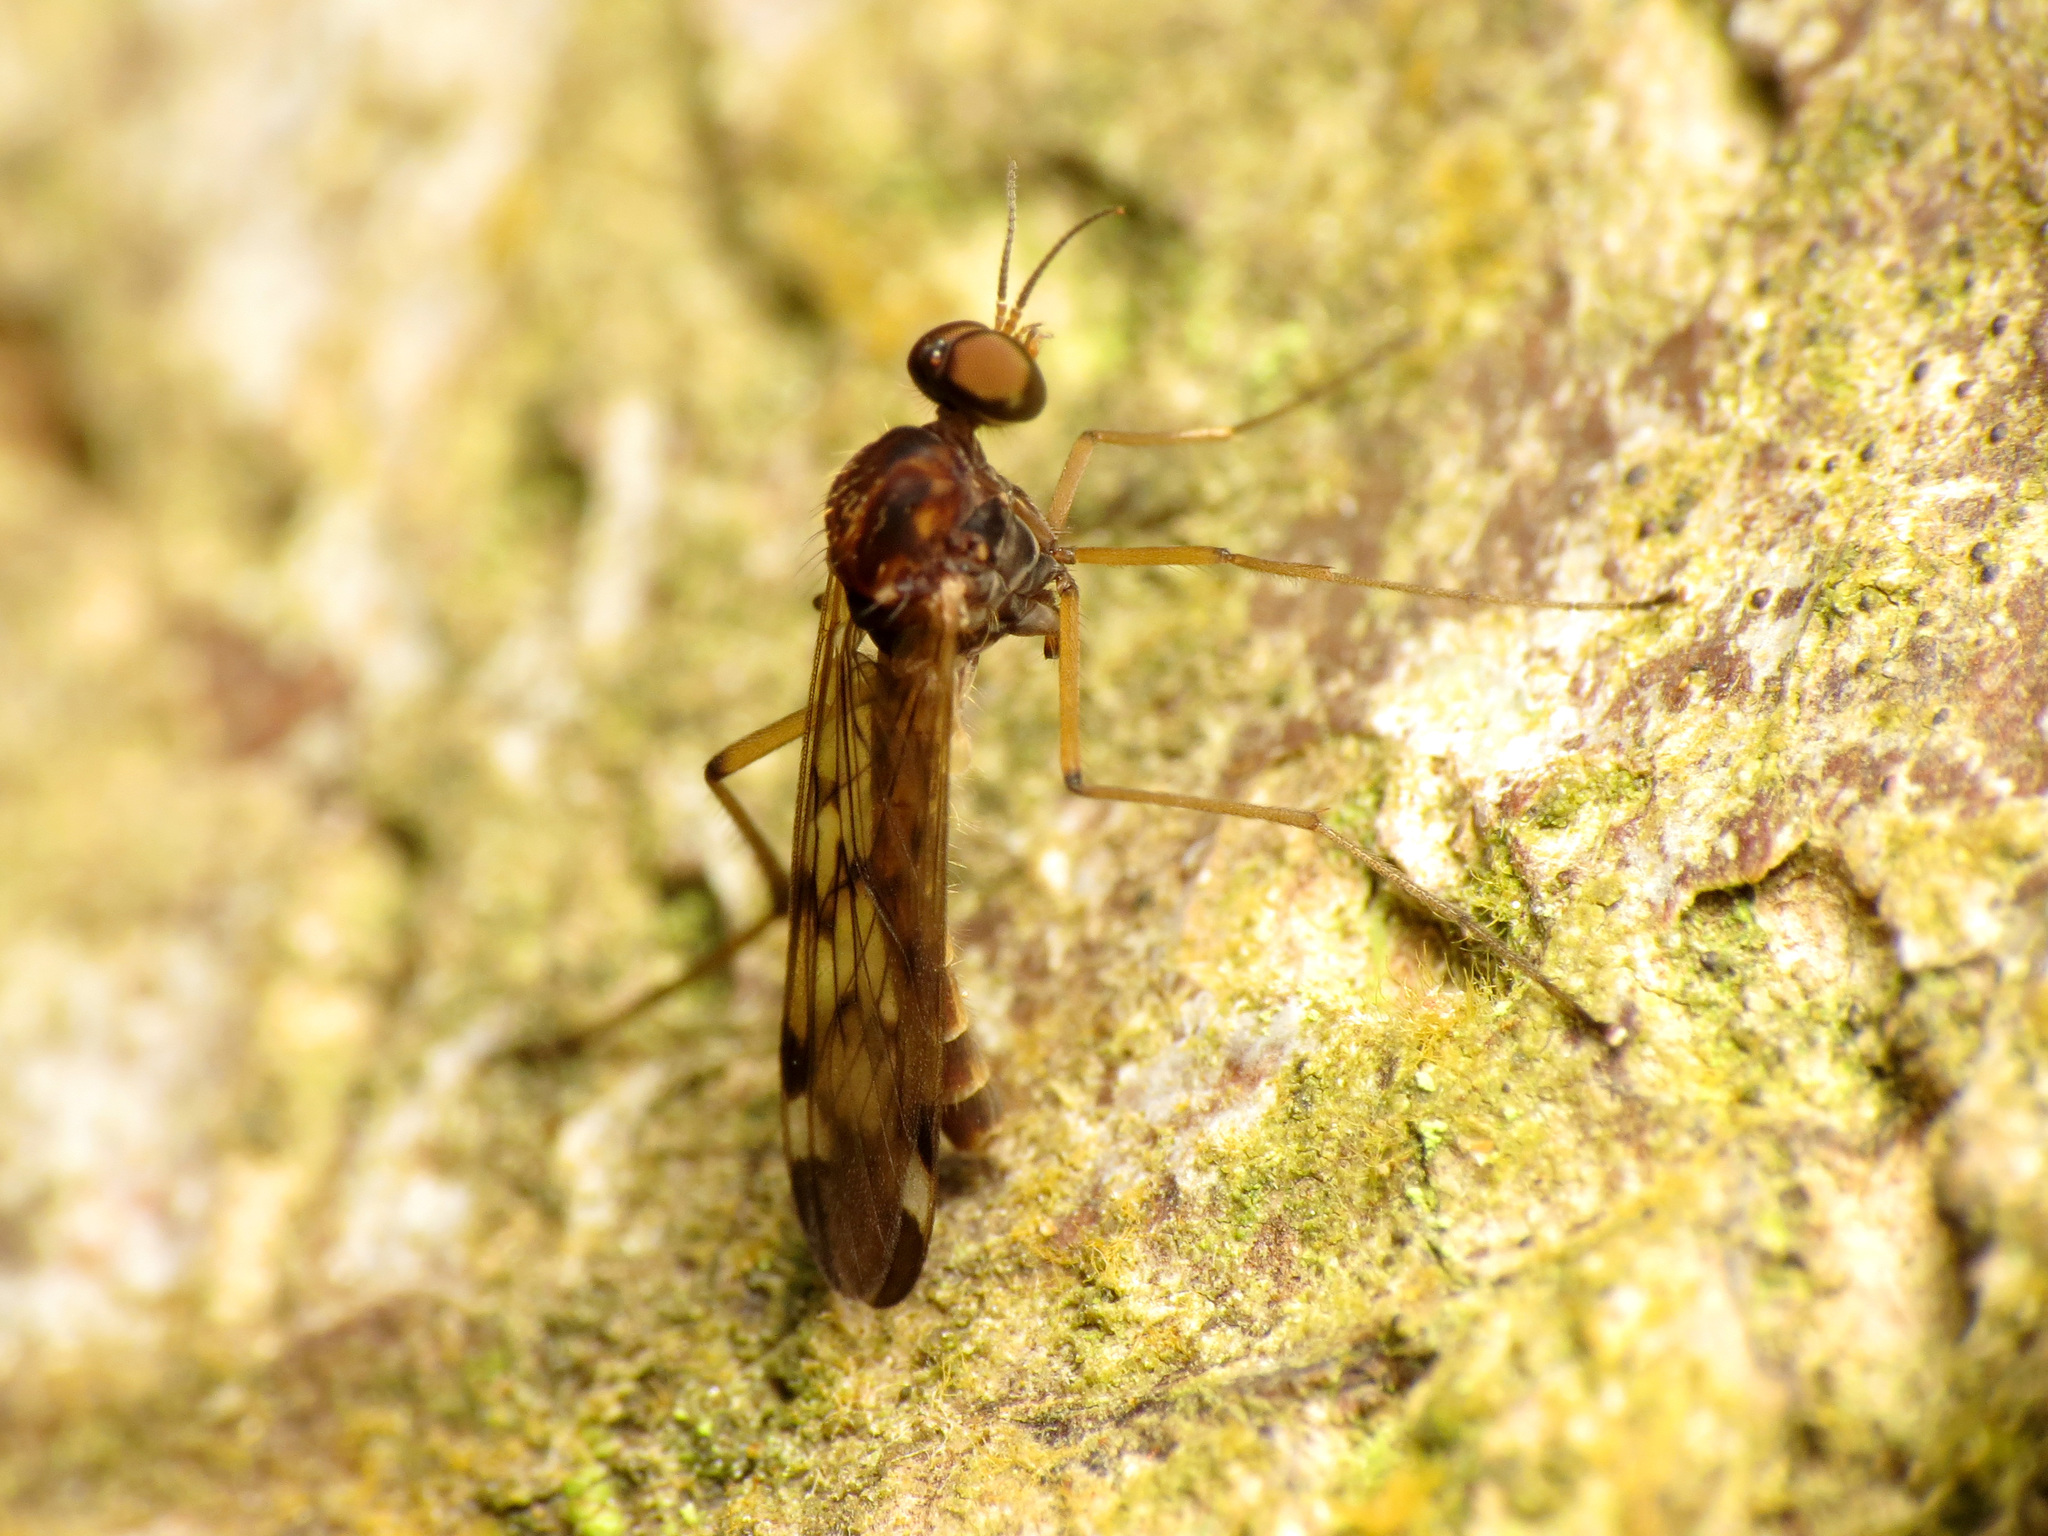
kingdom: Animalia
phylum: Arthropoda
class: Insecta
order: Diptera
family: Anisopodidae
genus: Sylvicola
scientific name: Sylvicola notatus
